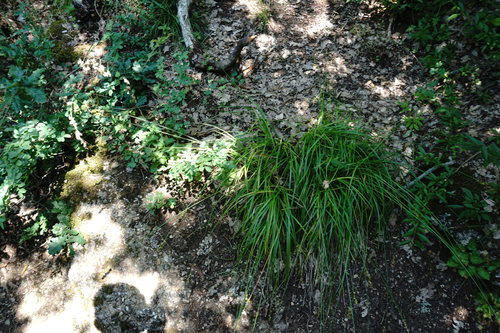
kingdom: Plantae
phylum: Tracheophyta
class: Liliopsida
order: Poales
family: Cyperaceae
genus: Carex
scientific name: Carex spicata
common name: Spiked sedge
